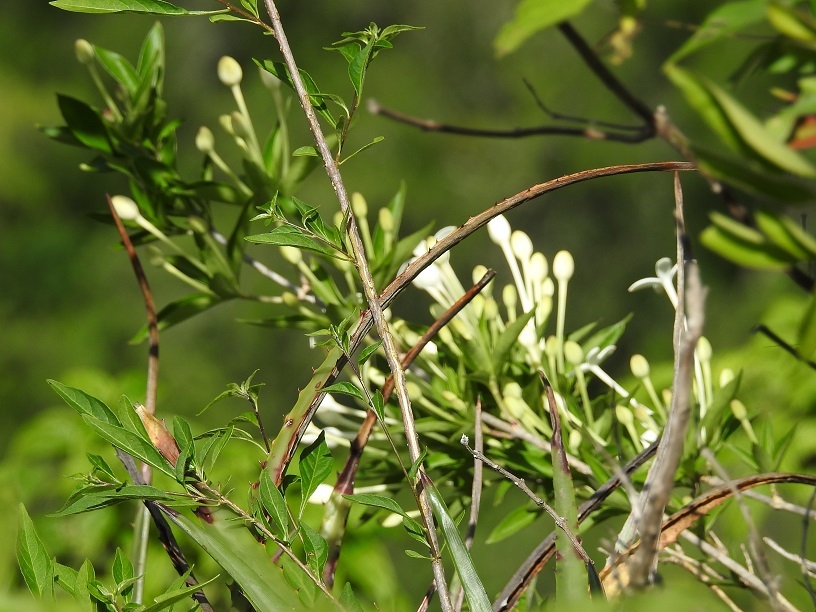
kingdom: Plantae
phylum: Tracheophyta
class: Magnoliopsida
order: Gentianales
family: Rubiaceae
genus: Bouvardia
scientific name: Bouvardia longiflora
